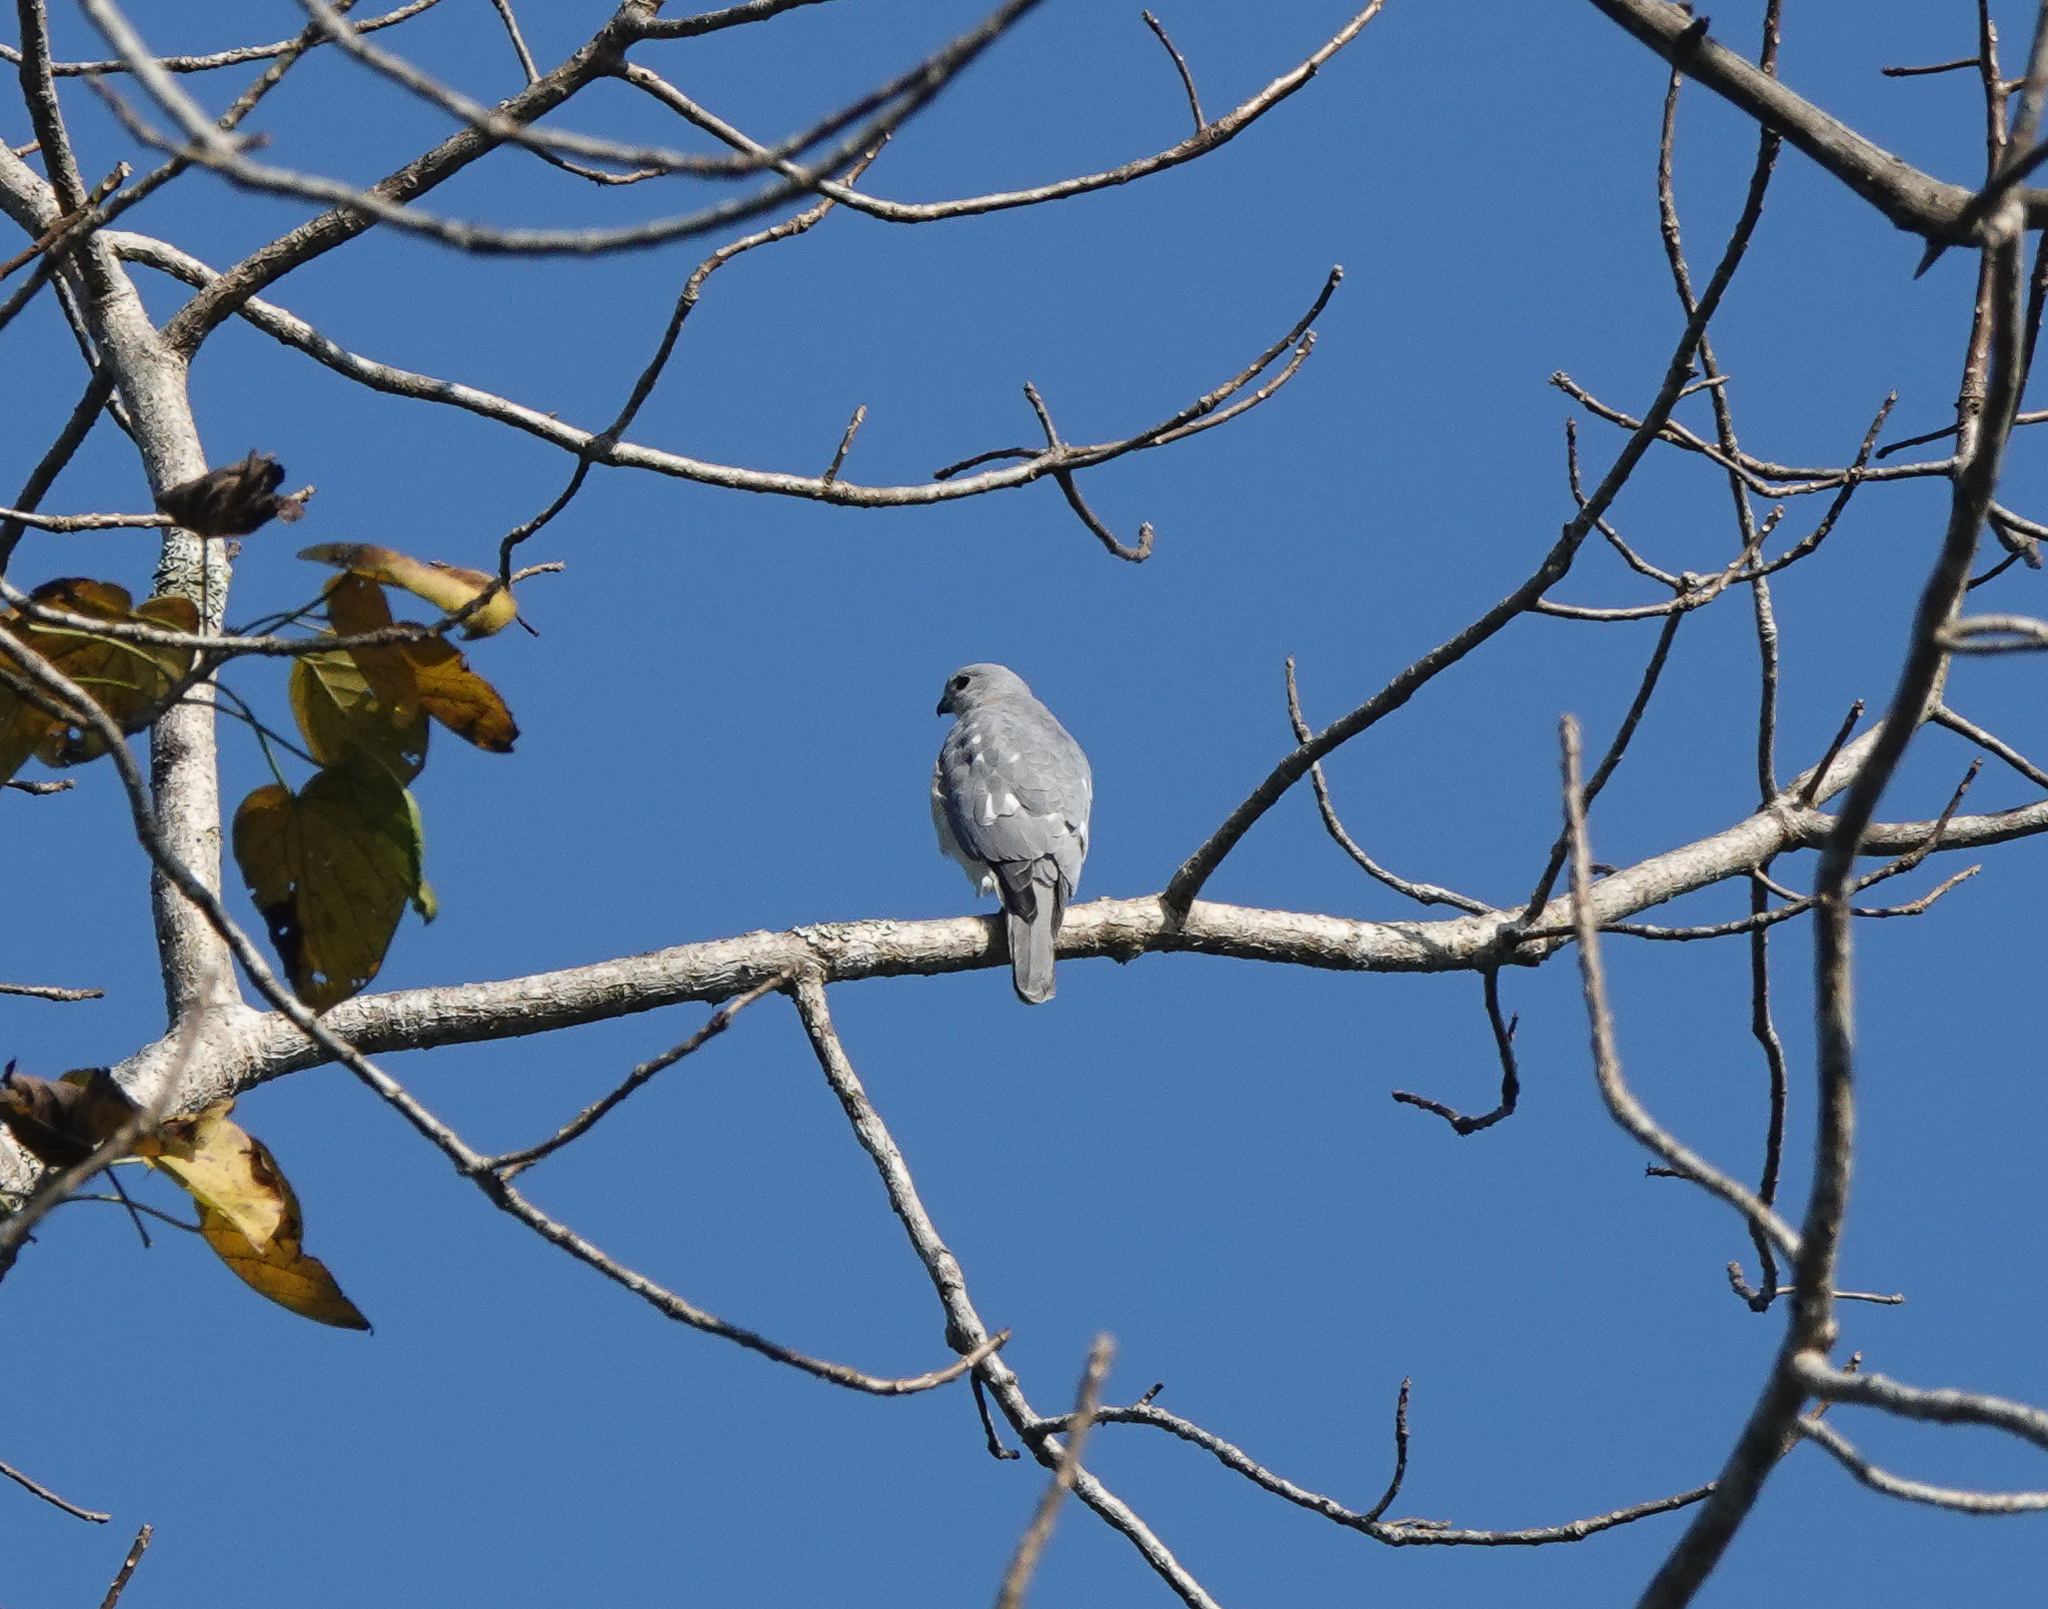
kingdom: Animalia
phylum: Chordata
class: Aves
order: Accipitriformes
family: Accipitridae
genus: Accipiter
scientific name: Accipiter badius
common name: Shikra
